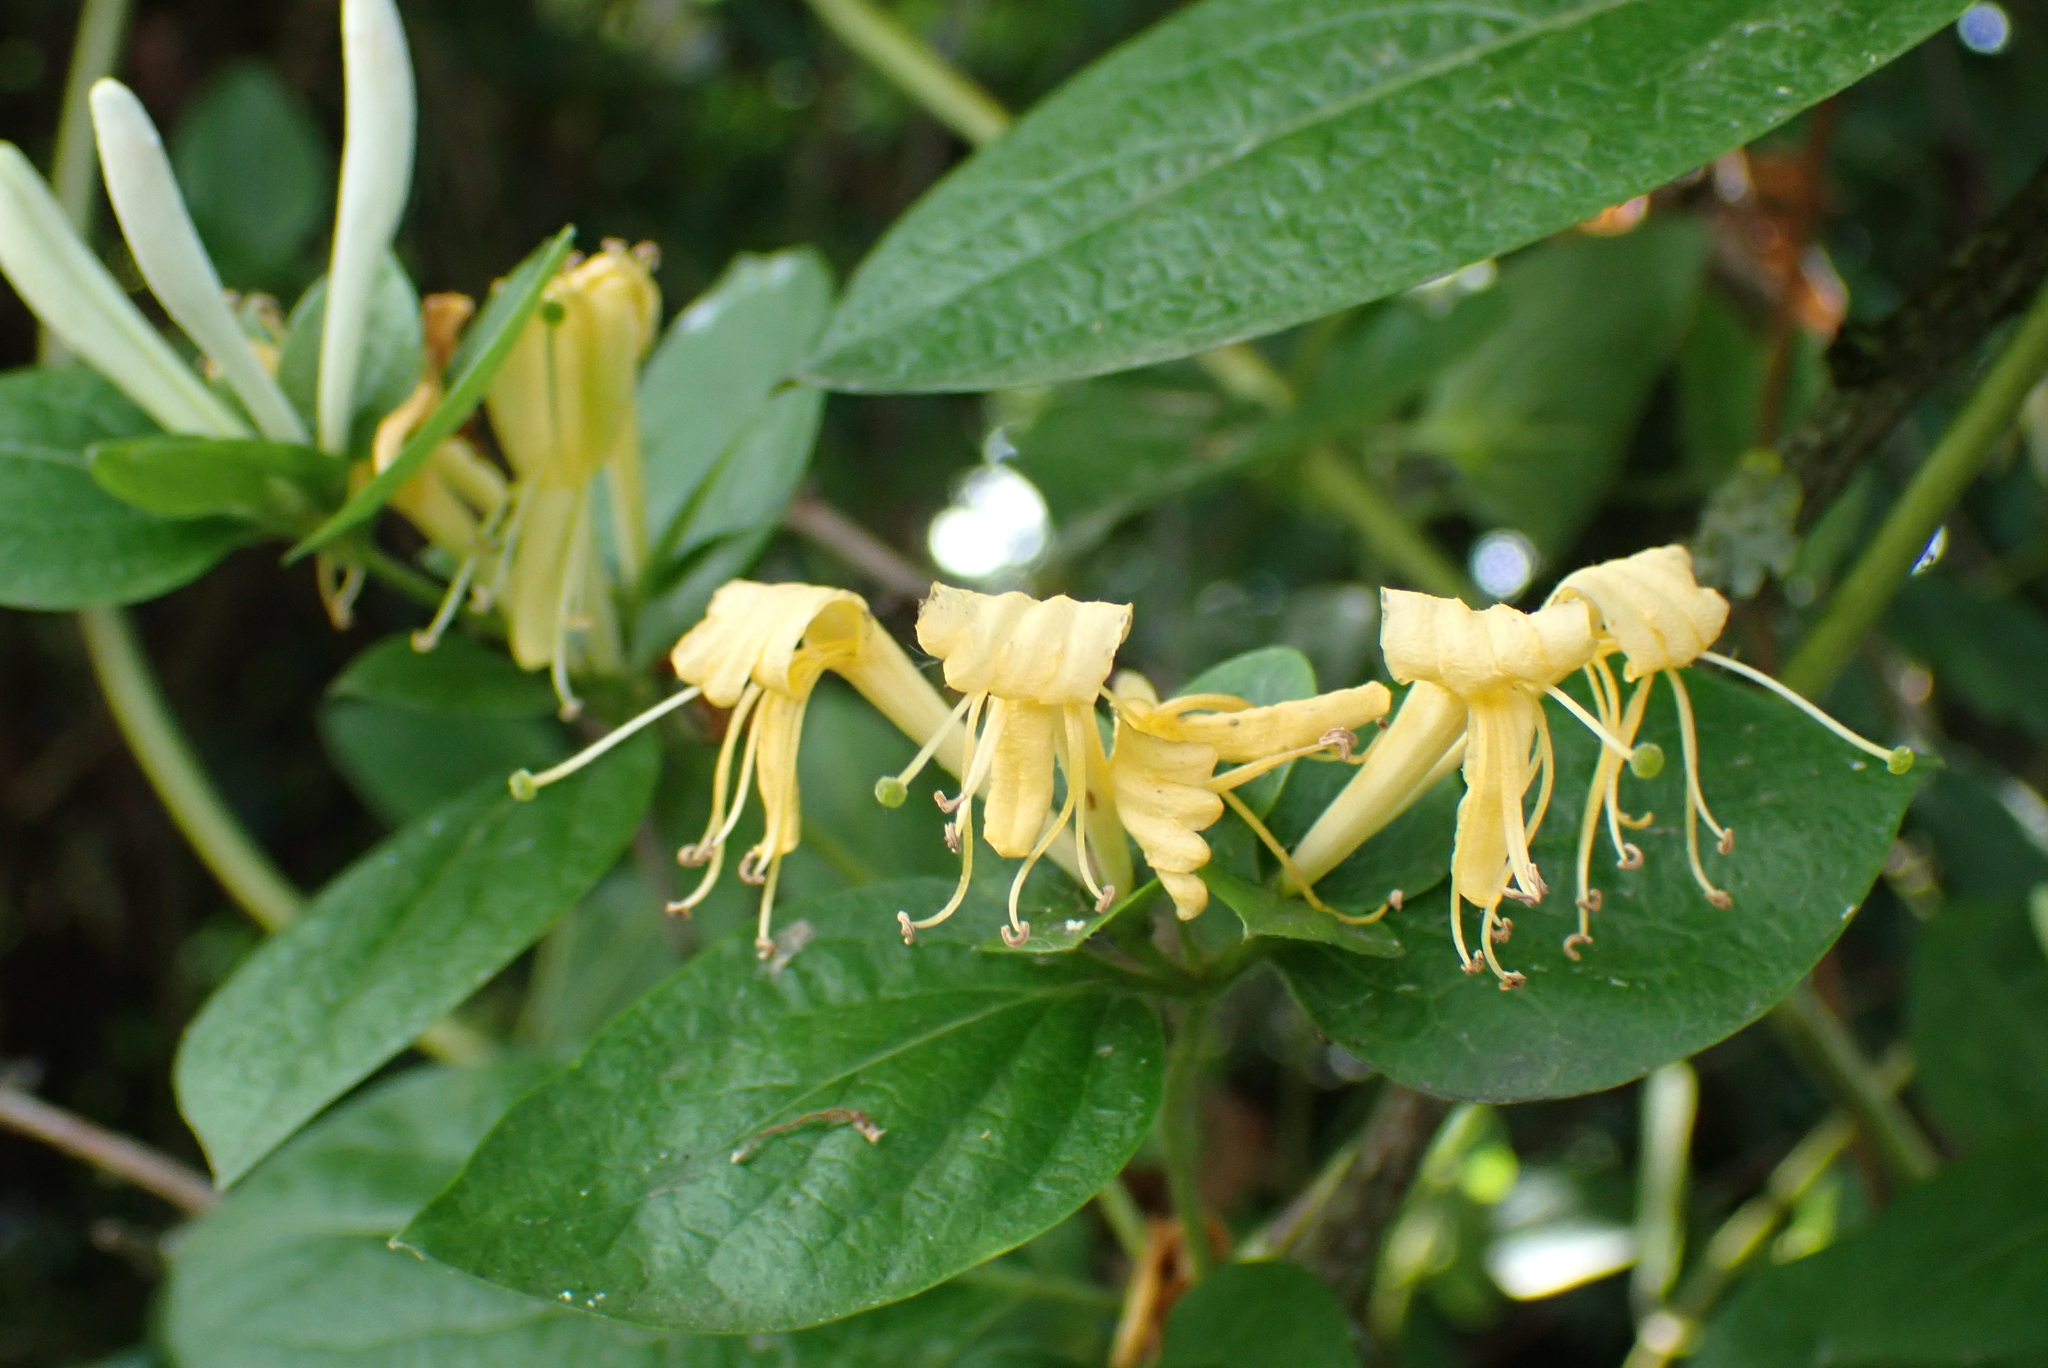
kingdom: Plantae
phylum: Tracheophyta
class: Magnoliopsida
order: Dipsacales
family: Caprifoliaceae
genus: Lonicera
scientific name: Lonicera japonica
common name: Japanese honeysuckle
